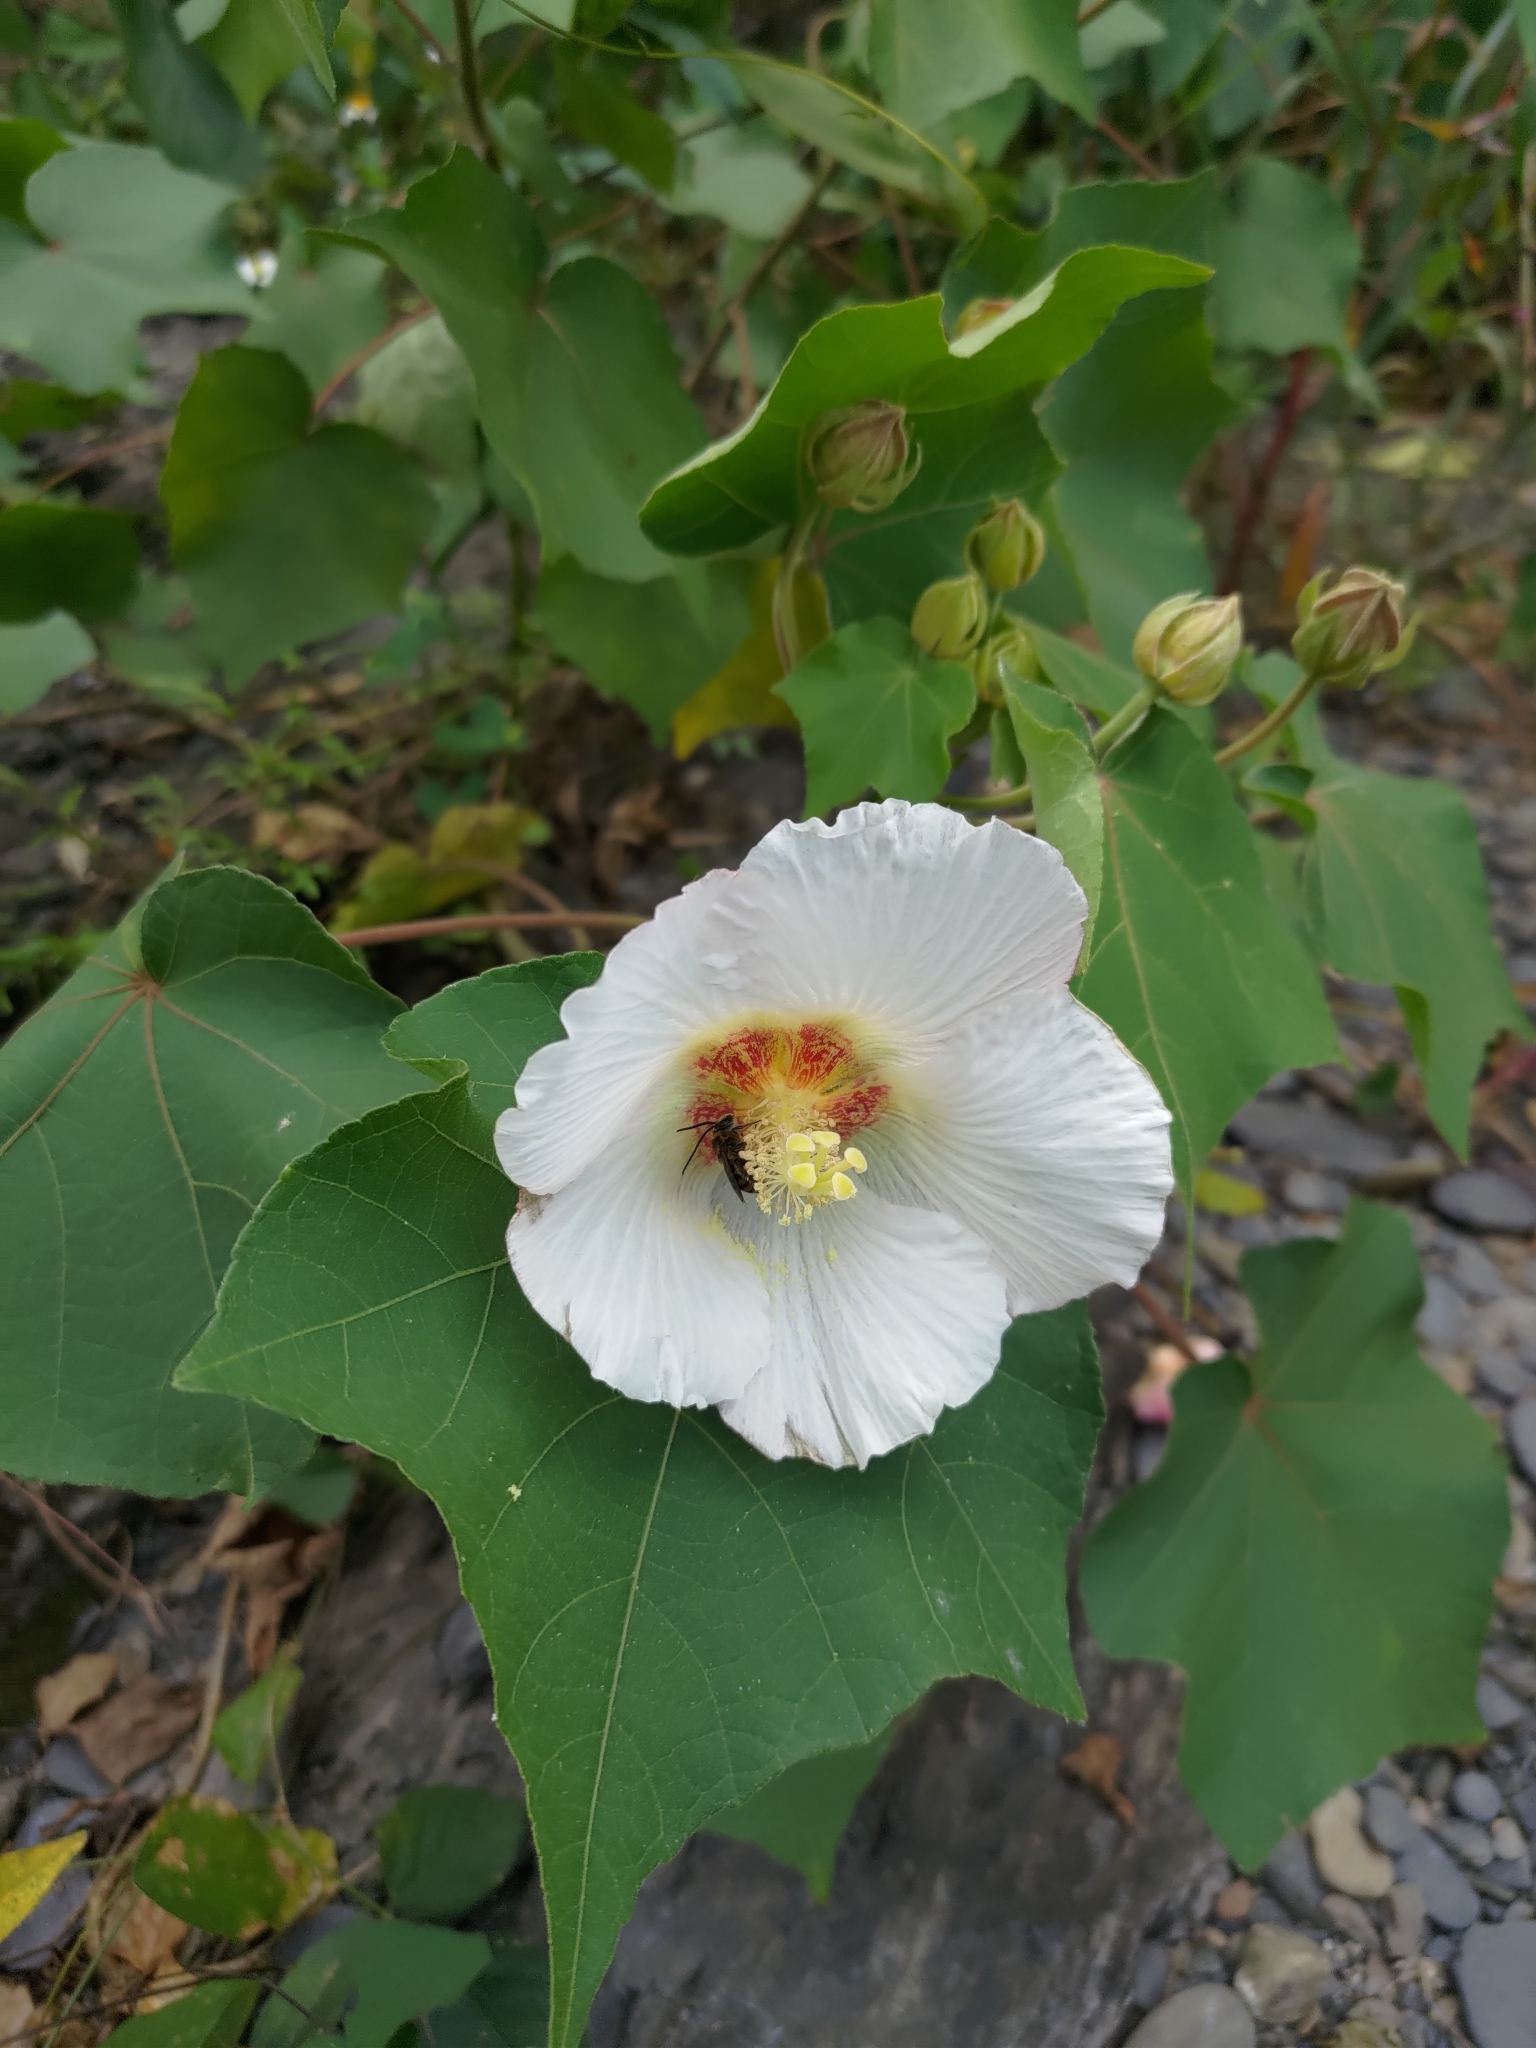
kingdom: Plantae
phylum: Tracheophyta
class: Magnoliopsida
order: Malvales
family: Malvaceae
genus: Hibiscus
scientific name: Hibiscus taiwanensis
